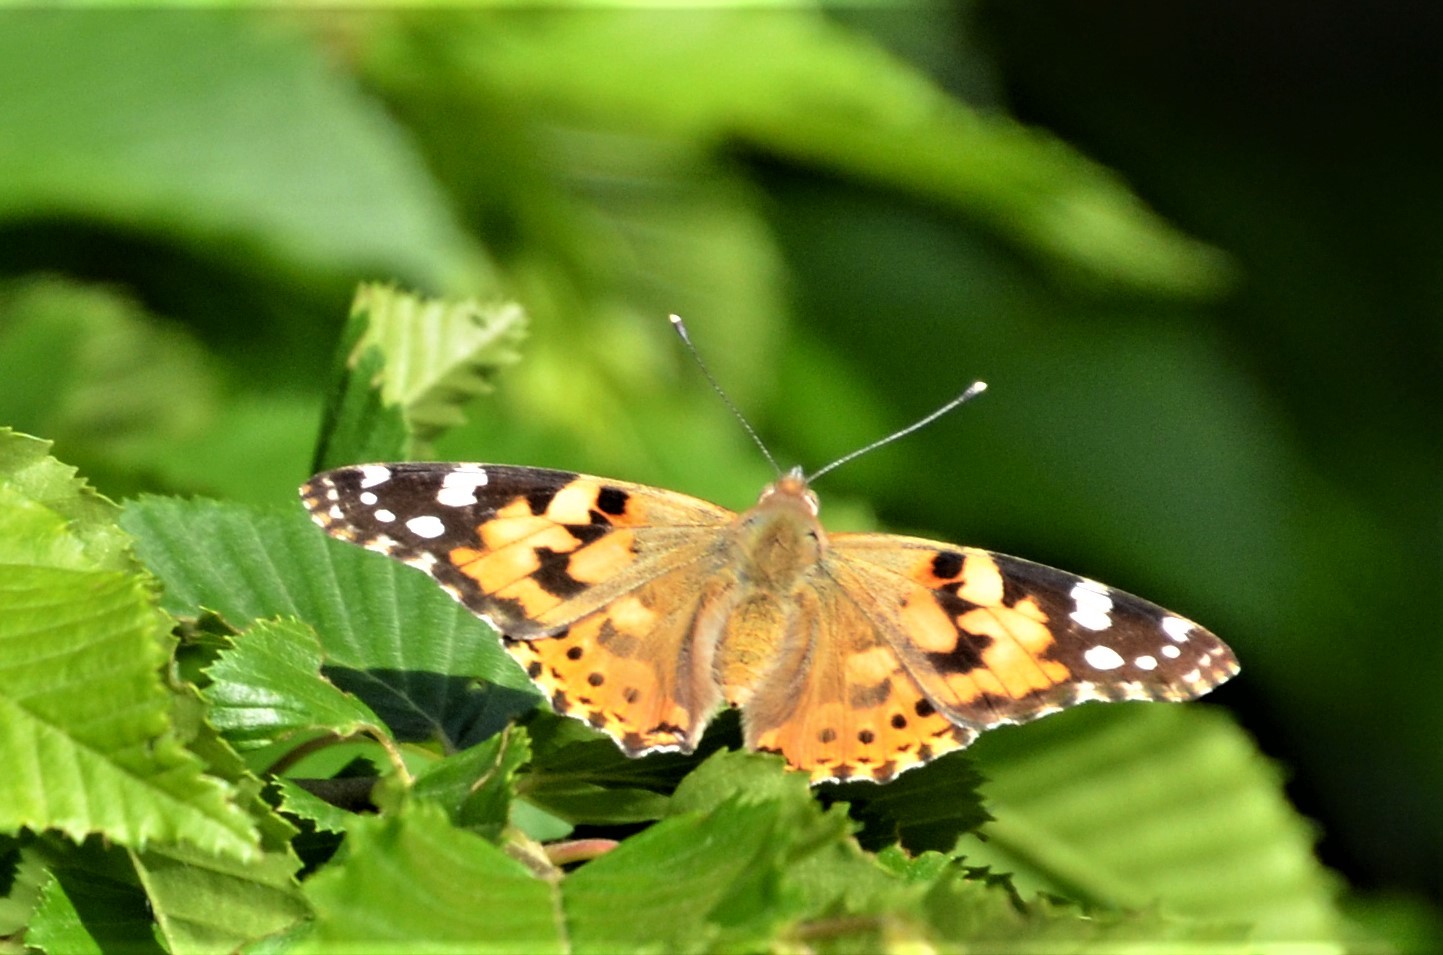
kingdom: Animalia
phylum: Arthropoda
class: Insecta
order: Lepidoptera
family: Nymphalidae
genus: Vanessa
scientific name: Vanessa cardui
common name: Painted lady
